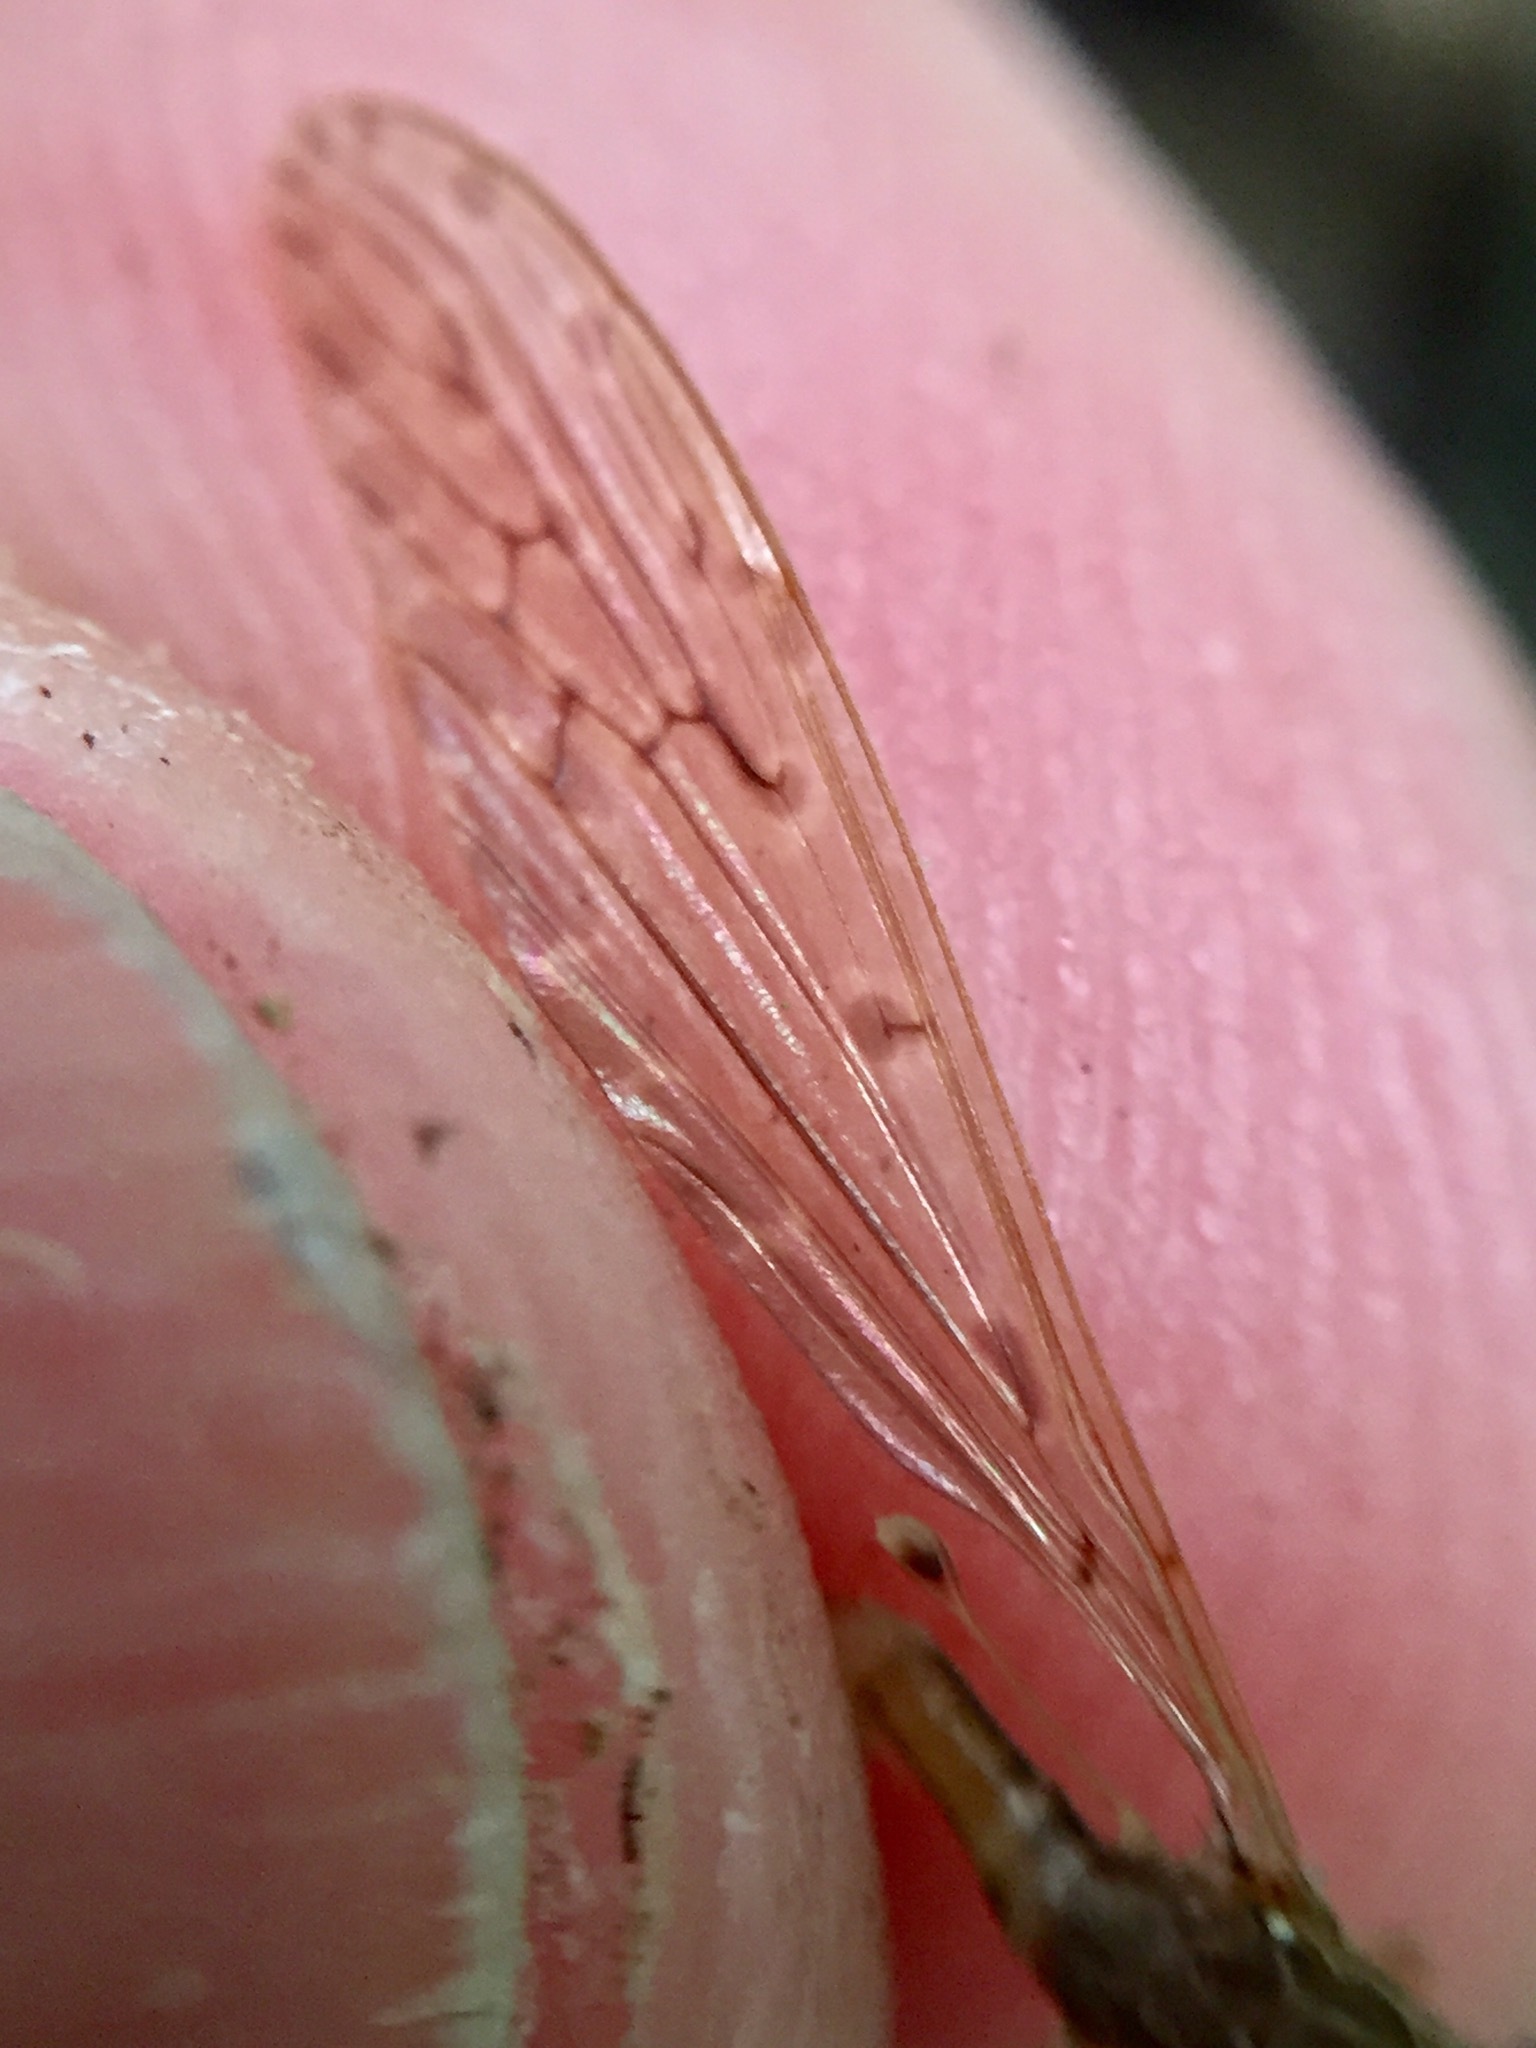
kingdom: Animalia
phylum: Arthropoda
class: Insecta
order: Diptera
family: Limoniidae
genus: Austrolimnophila
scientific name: Austrolimnophila crassipes
